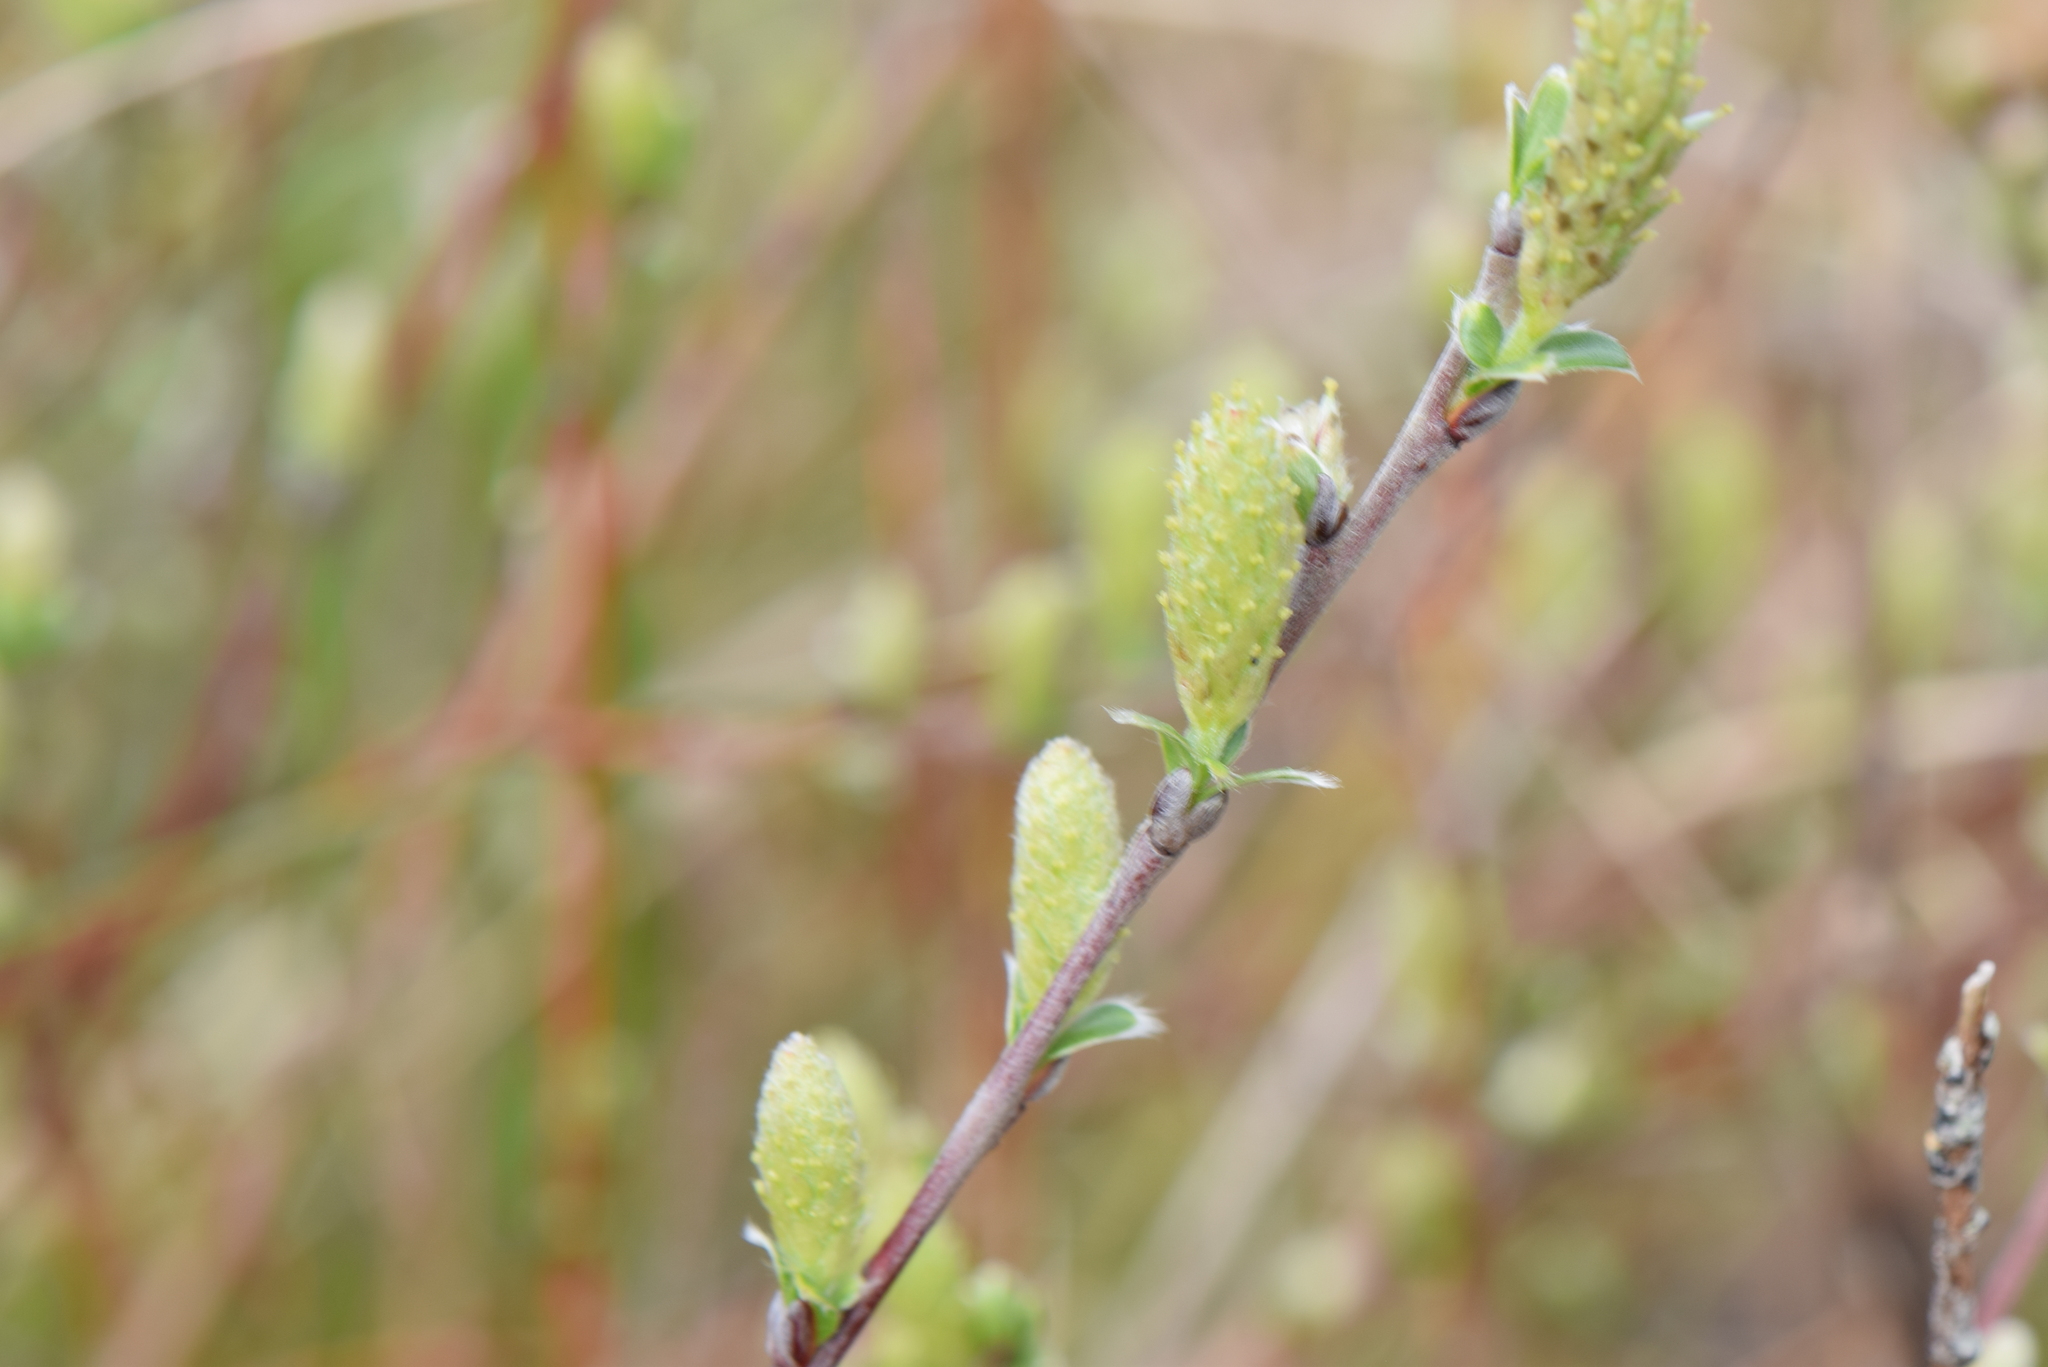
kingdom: Plantae
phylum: Tracheophyta
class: Magnoliopsida
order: Malpighiales
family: Salicaceae
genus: Salix
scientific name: Salix repens
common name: Creeping willow
